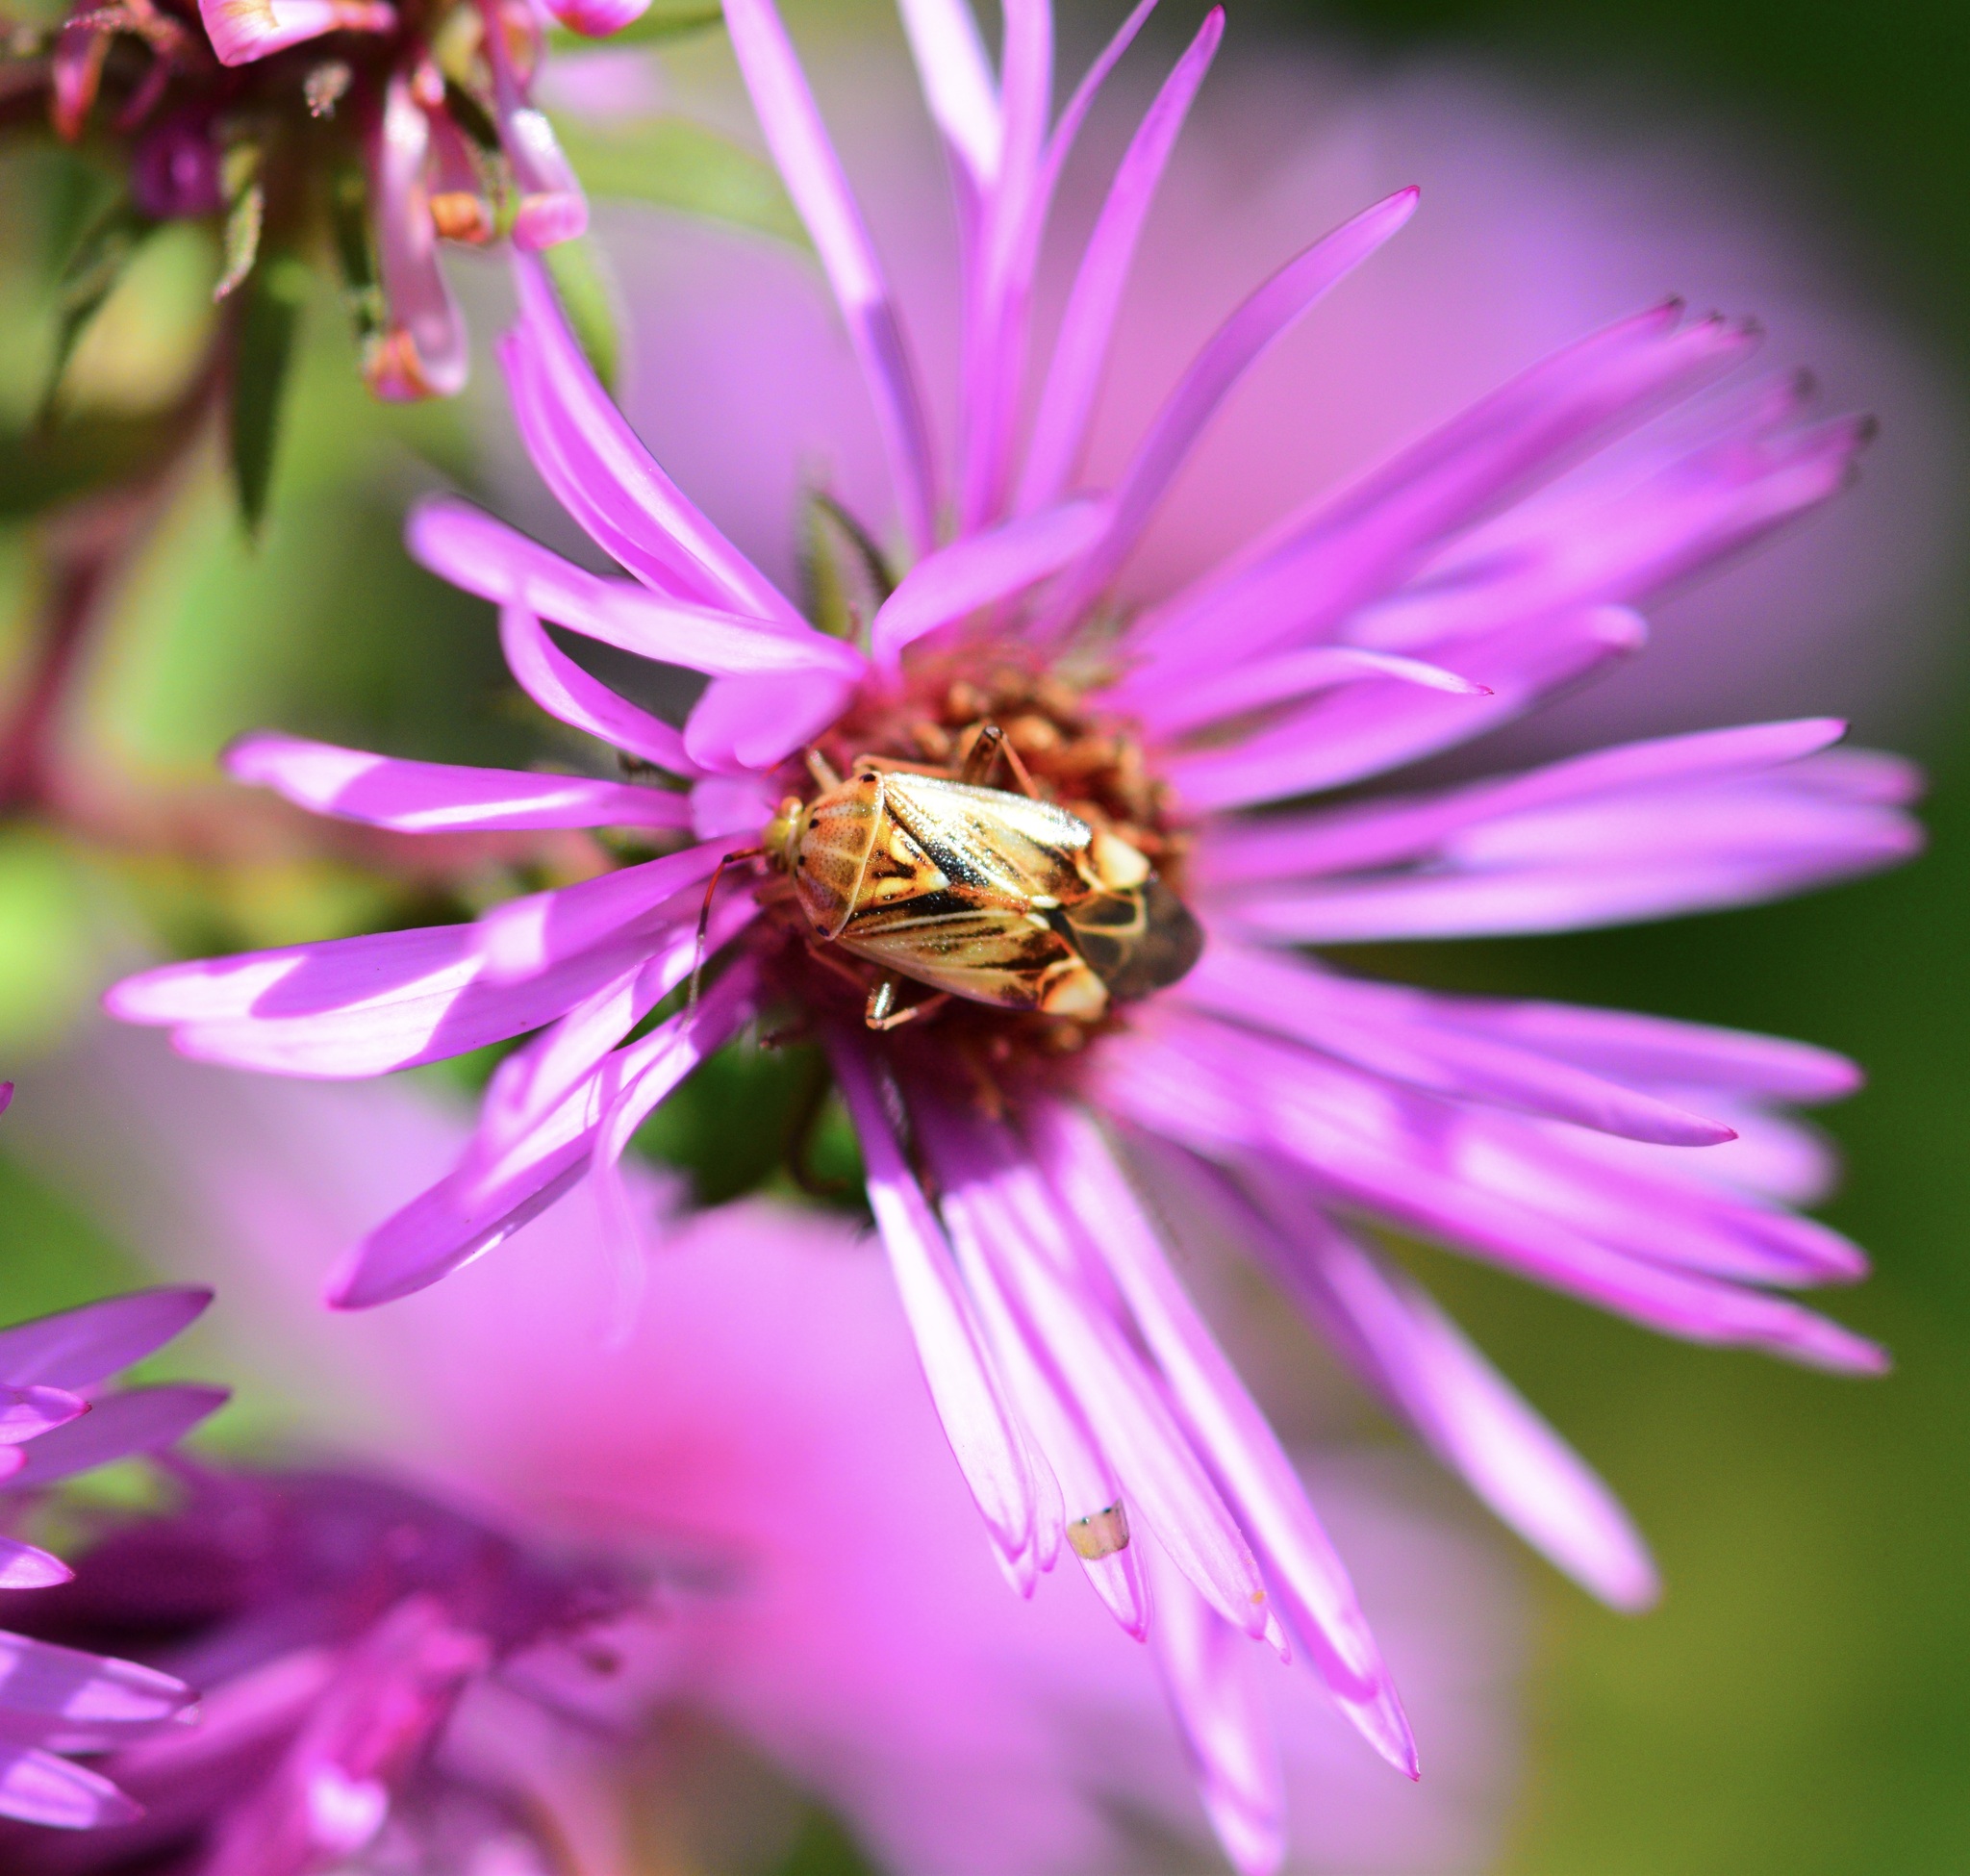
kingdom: Animalia
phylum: Arthropoda
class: Insecta
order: Hemiptera
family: Miridae
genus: Lygus
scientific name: Lygus lineolaris
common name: North american tarnished plant bug
